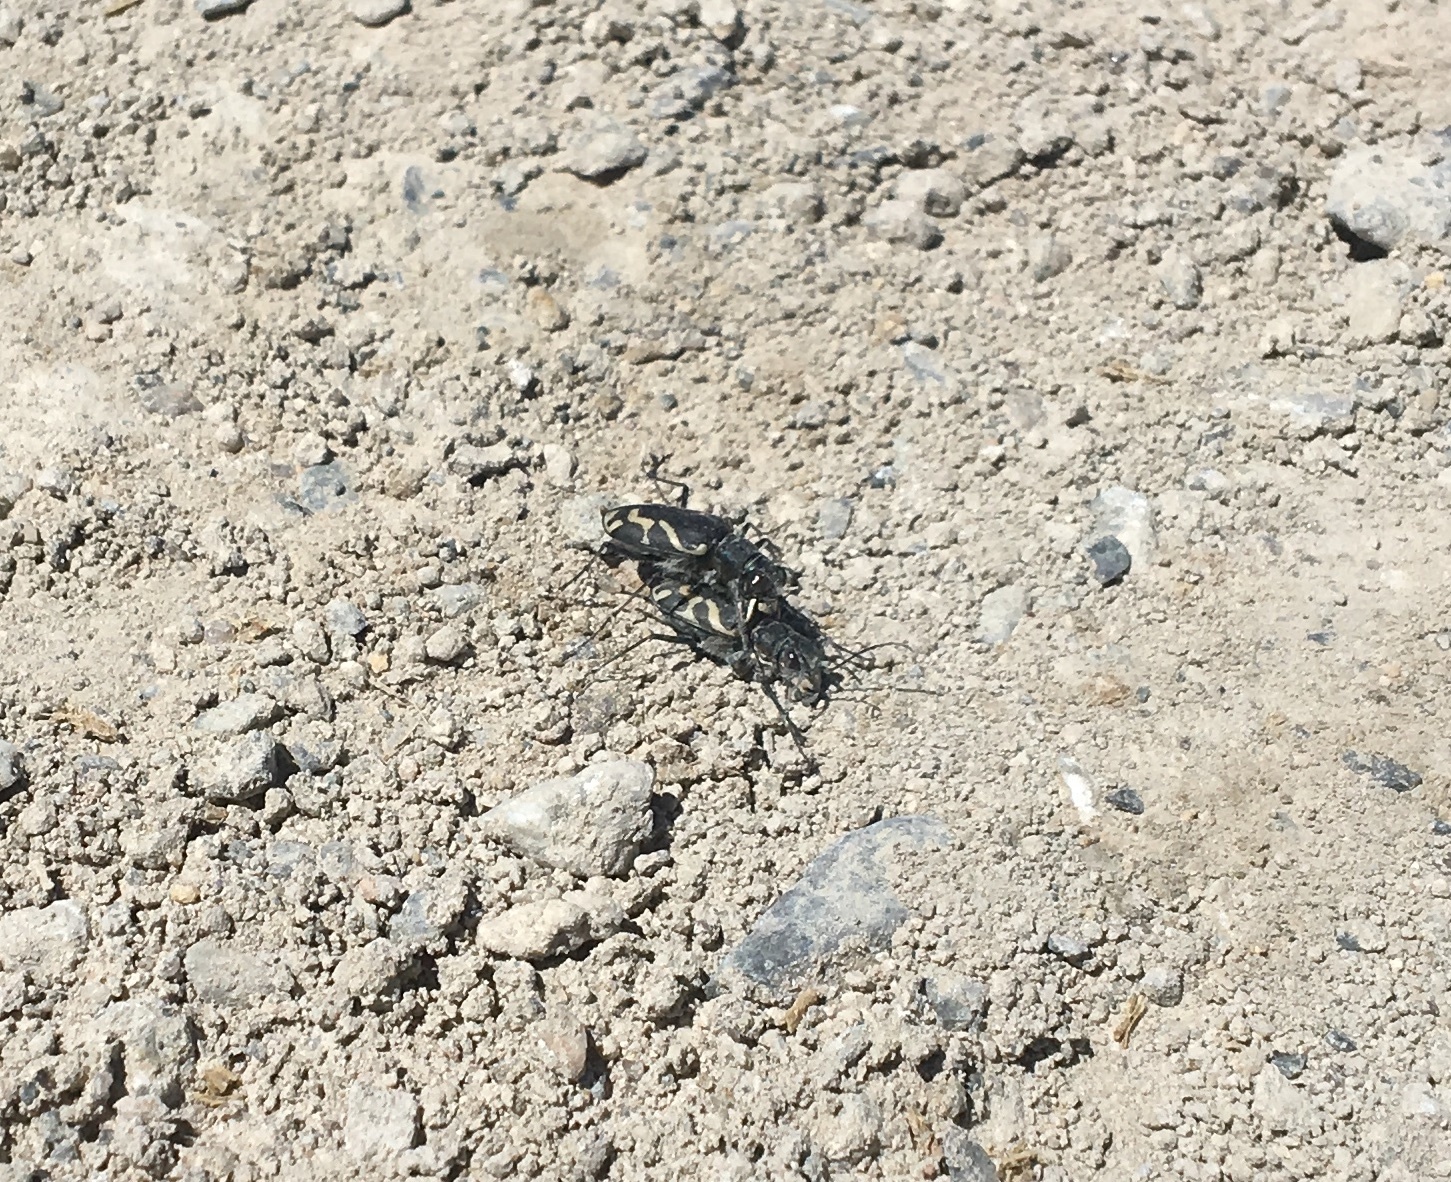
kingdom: Animalia
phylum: Arthropoda
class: Insecta
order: Coleoptera
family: Carabidae
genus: Cicindela
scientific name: Cicindela tranquebarica
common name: Oblique-lined tiger beetle
